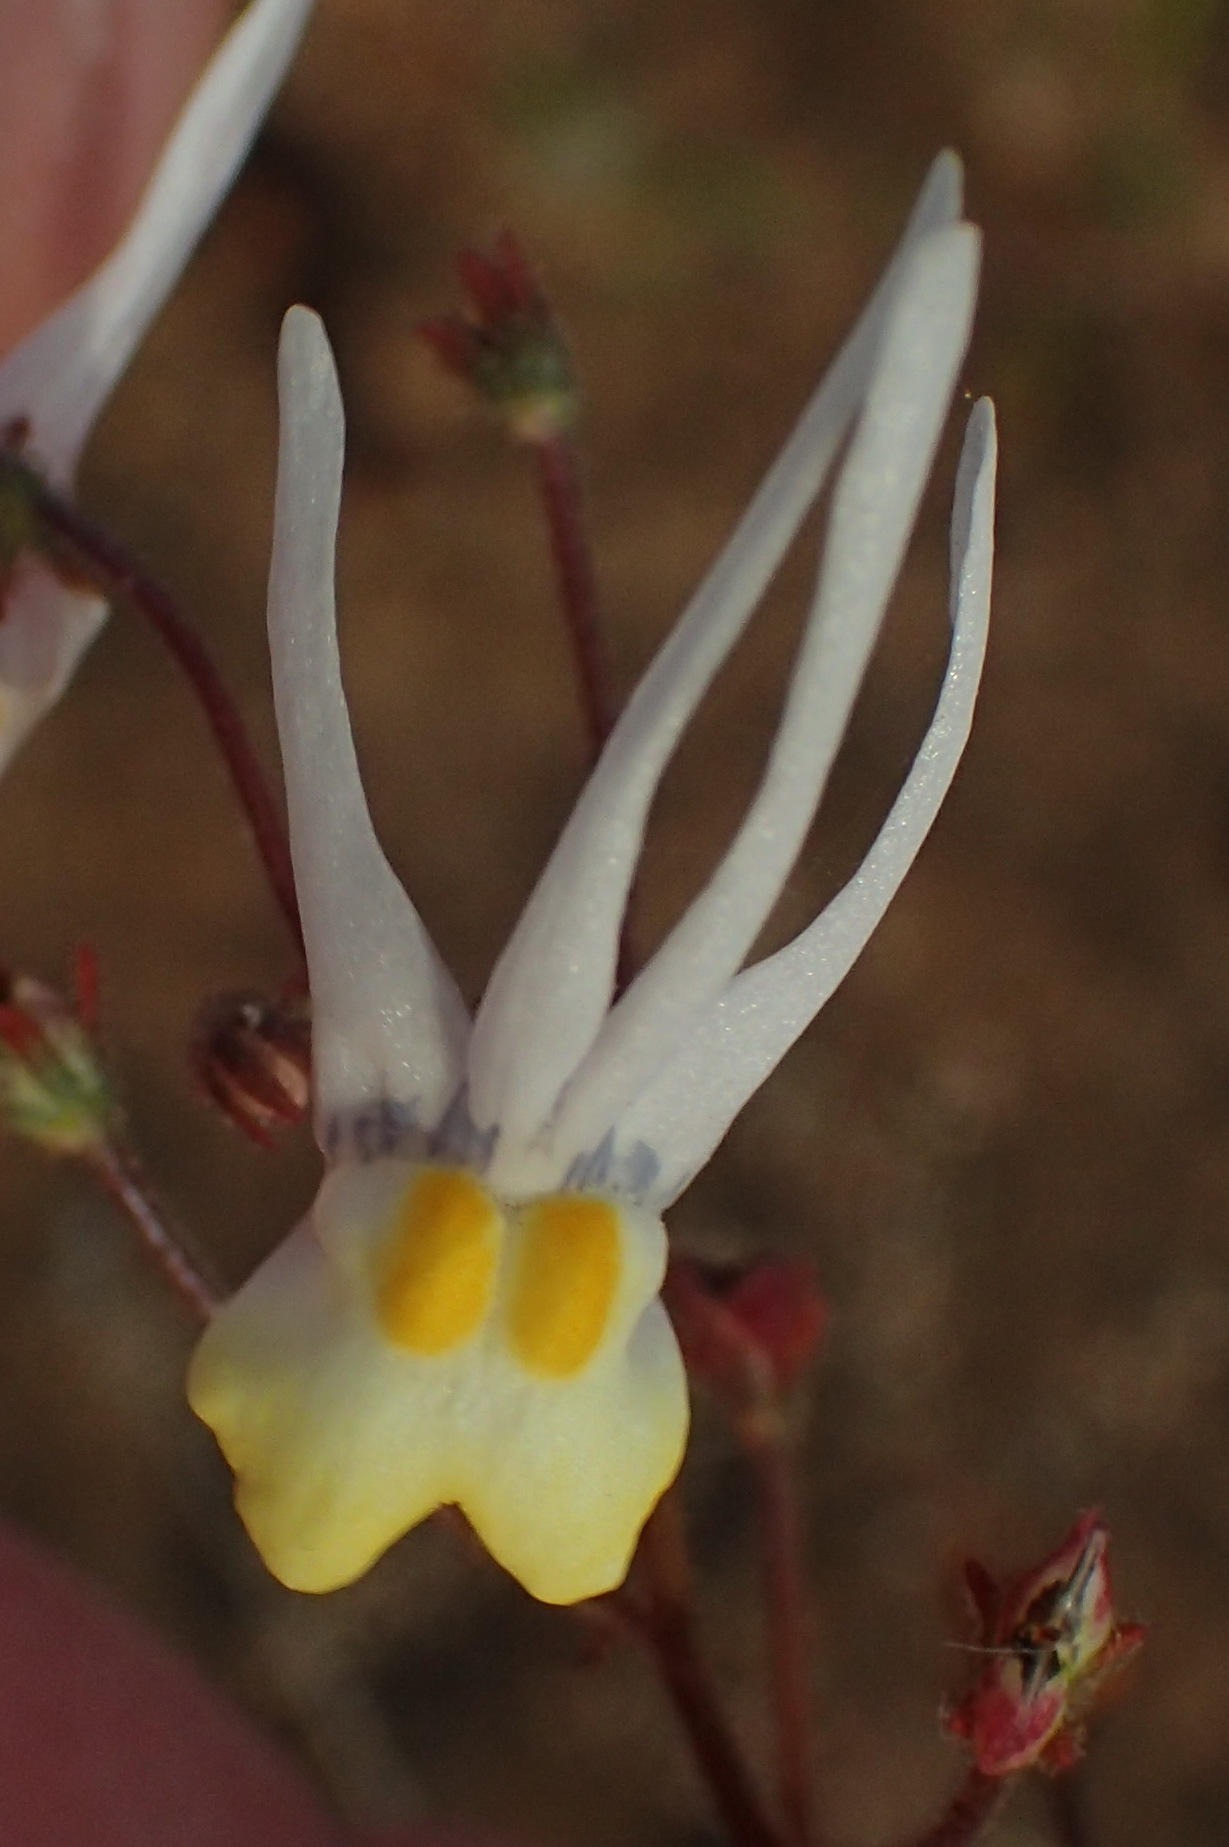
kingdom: Plantae
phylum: Tracheophyta
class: Magnoliopsida
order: Lamiales
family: Scrophulariaceae
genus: Nemesia
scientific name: Nemesia cheiranthus
